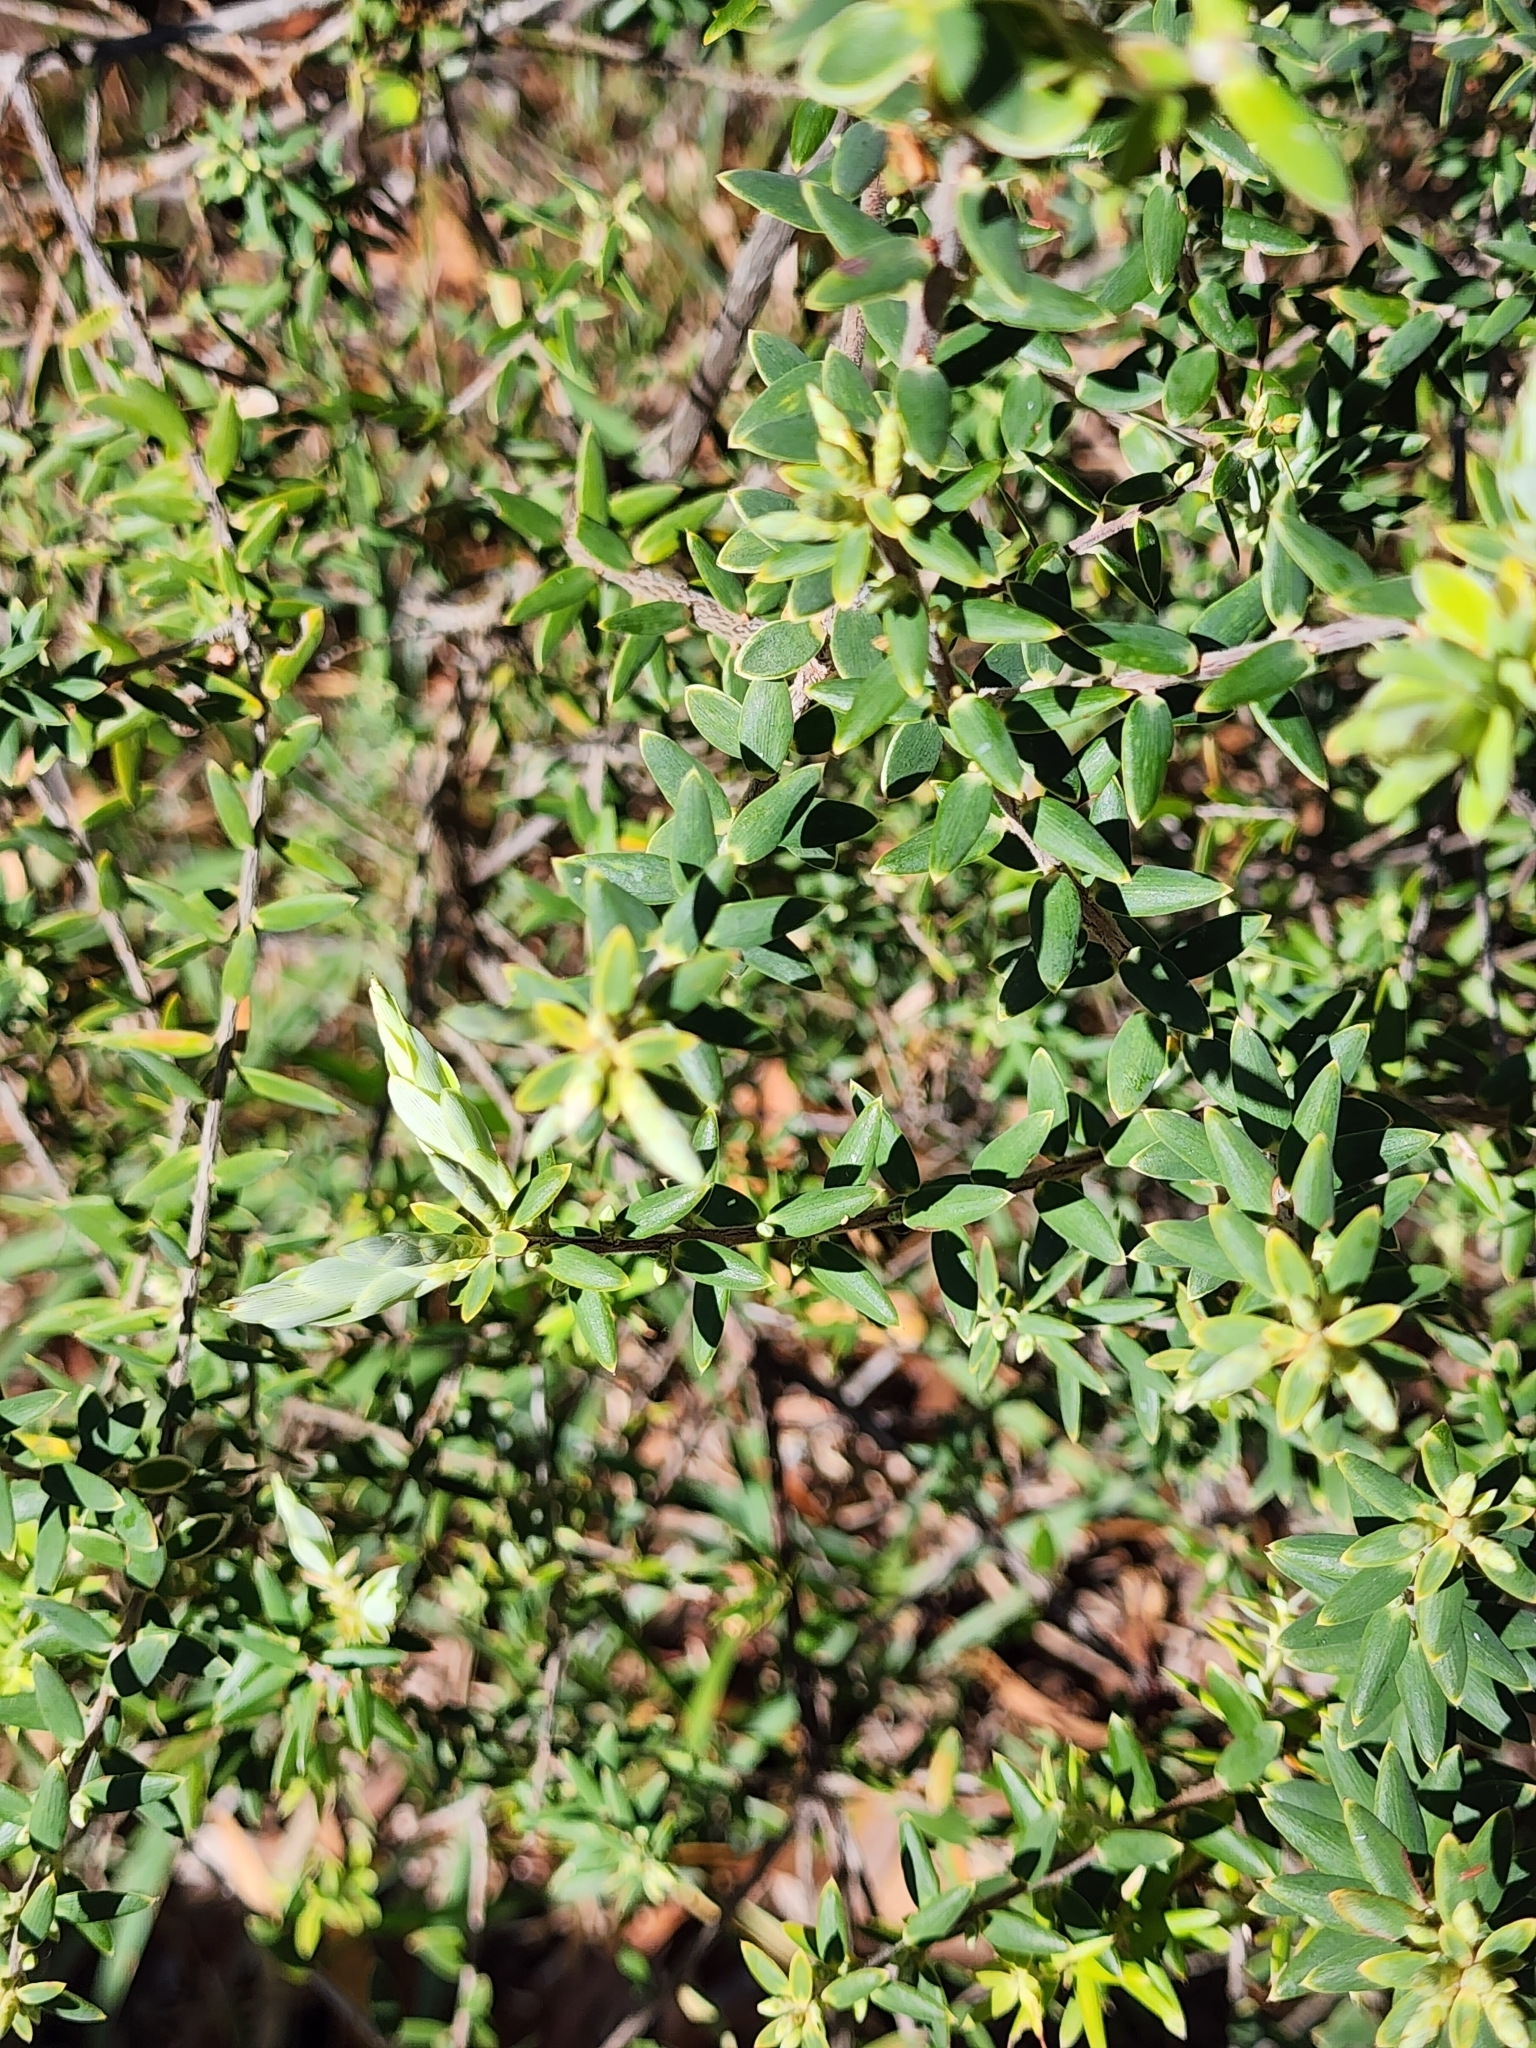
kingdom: Plantae
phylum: Tracheophyta
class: Magnoliopsida
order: Ericales
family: Ericaceae
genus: Leptecophylla
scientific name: Leptecophylla tameiameiae
